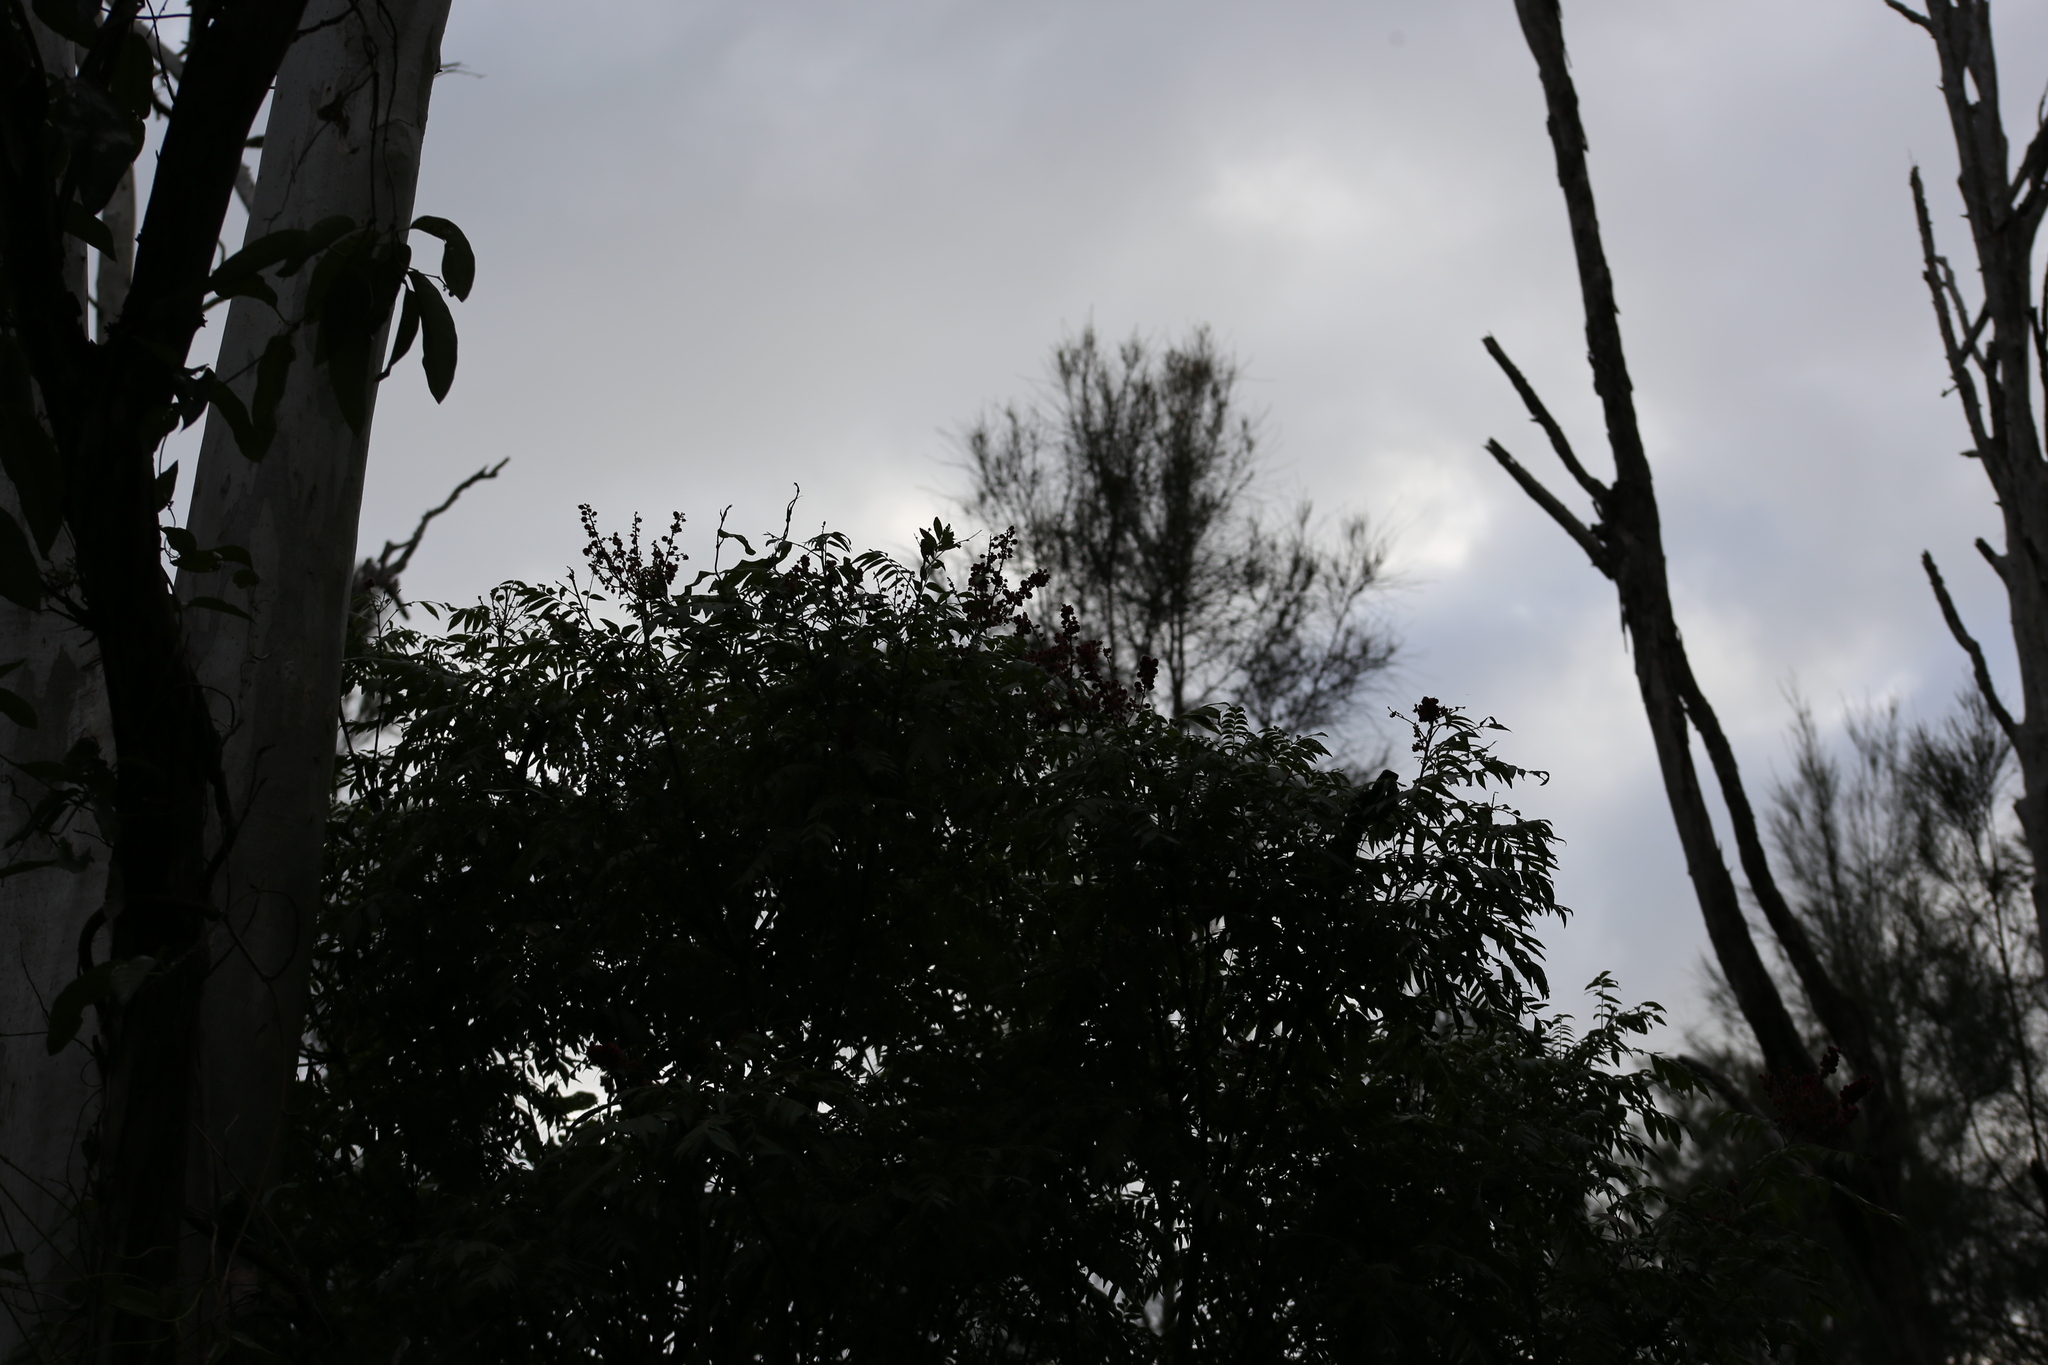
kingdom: Plantae
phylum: Tracheophyta
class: Magnoliopsida
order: Sapindales
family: Sapindaceae
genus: Jagera
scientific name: Jagera pseudorhus
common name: Fern-leaf-tamarind
